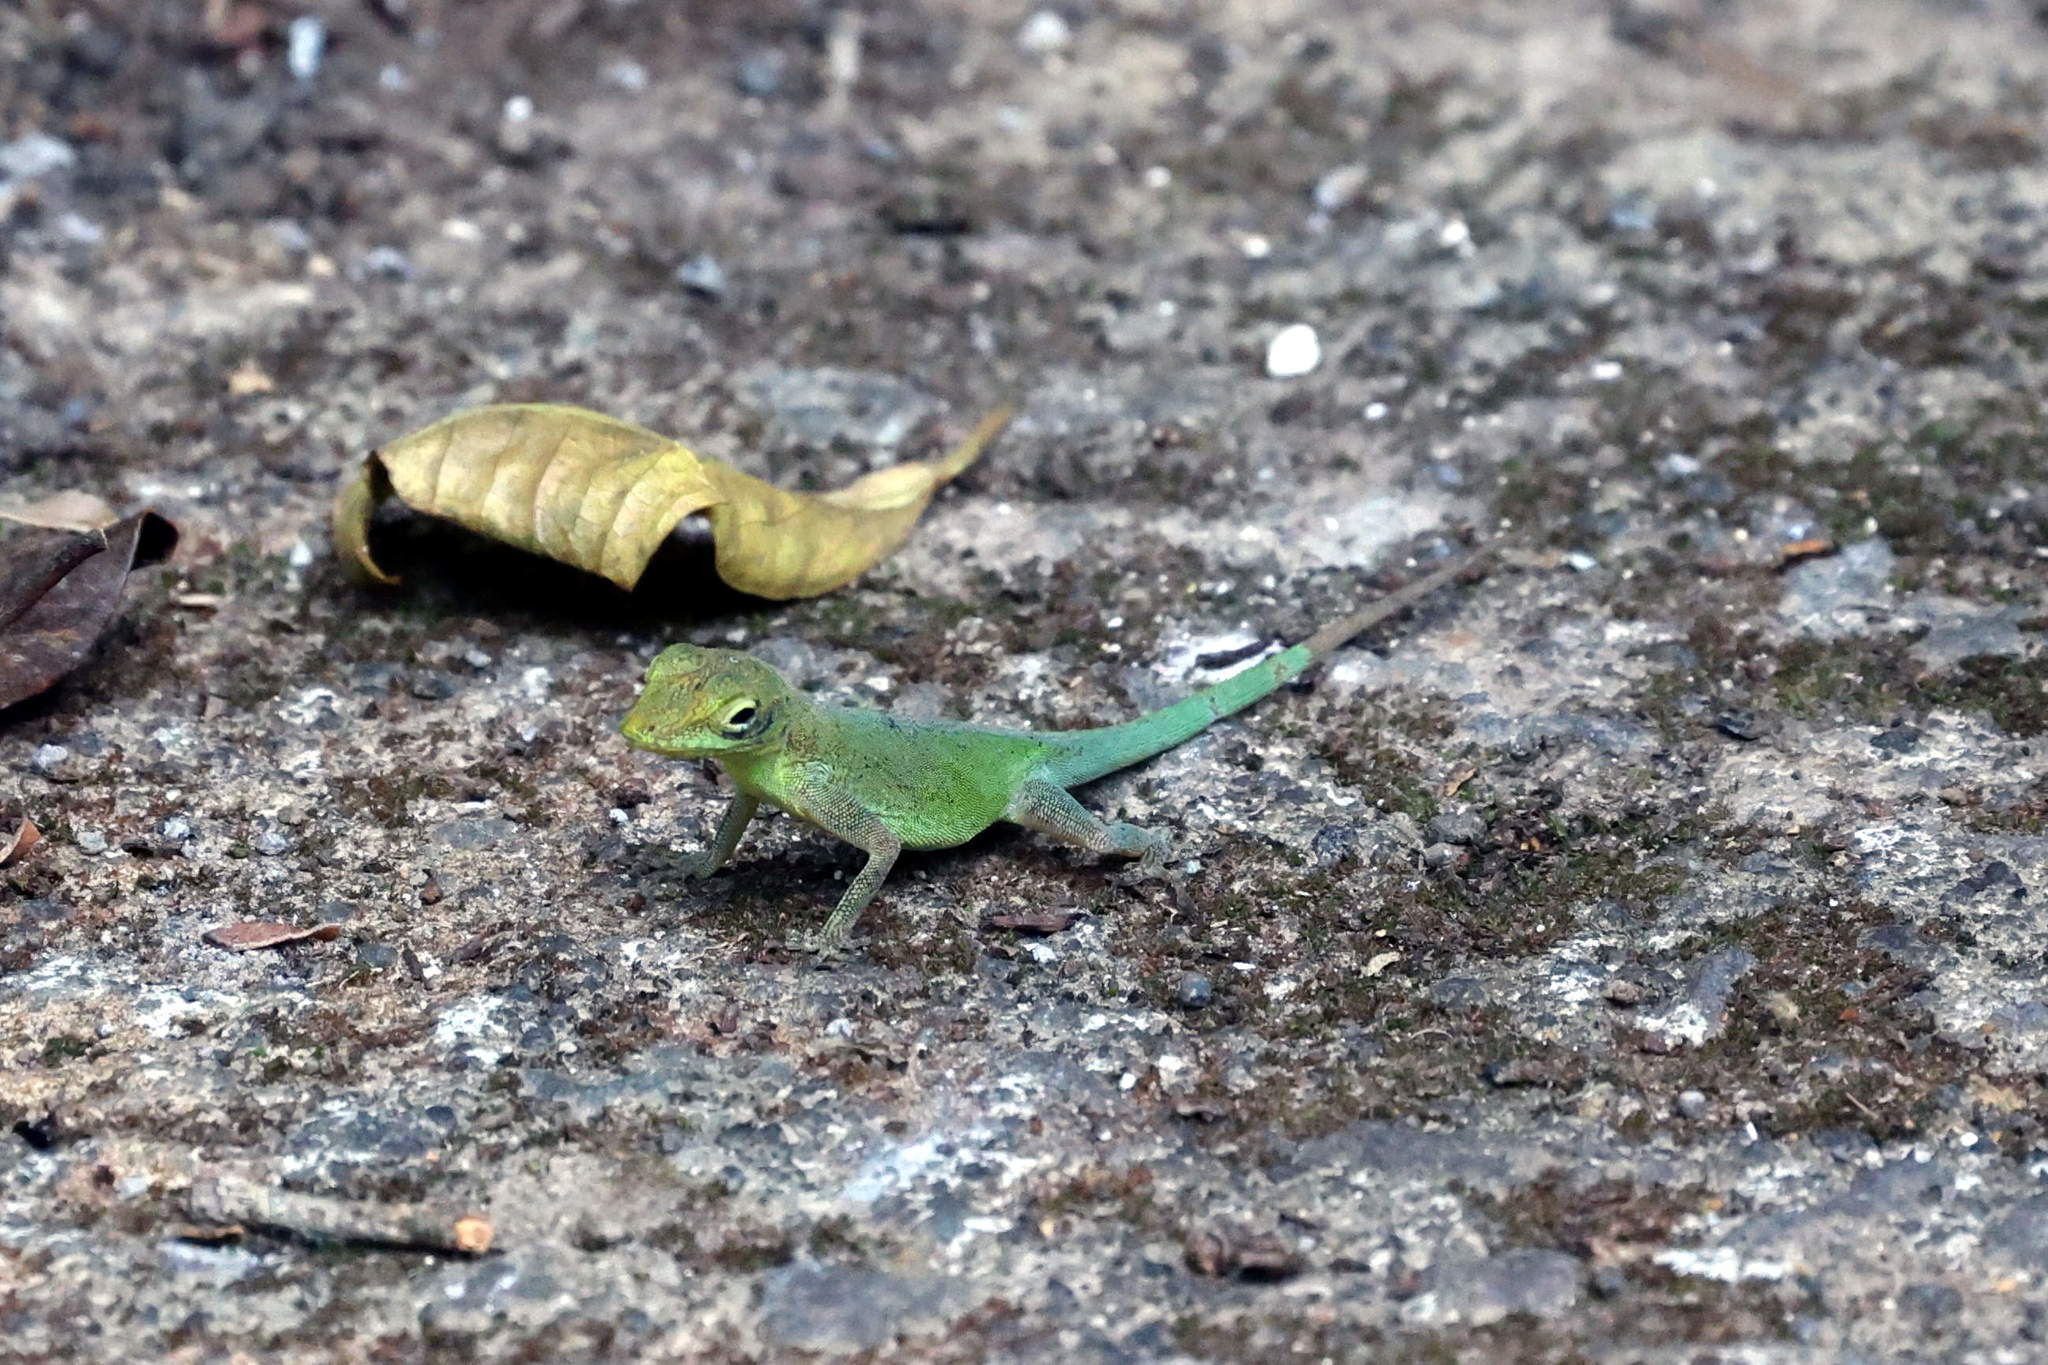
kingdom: Animalia
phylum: Chordata
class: Squamata
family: Dactyloidae
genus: Anolis
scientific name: Anolis marmoratus
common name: Guadeloupe anole
